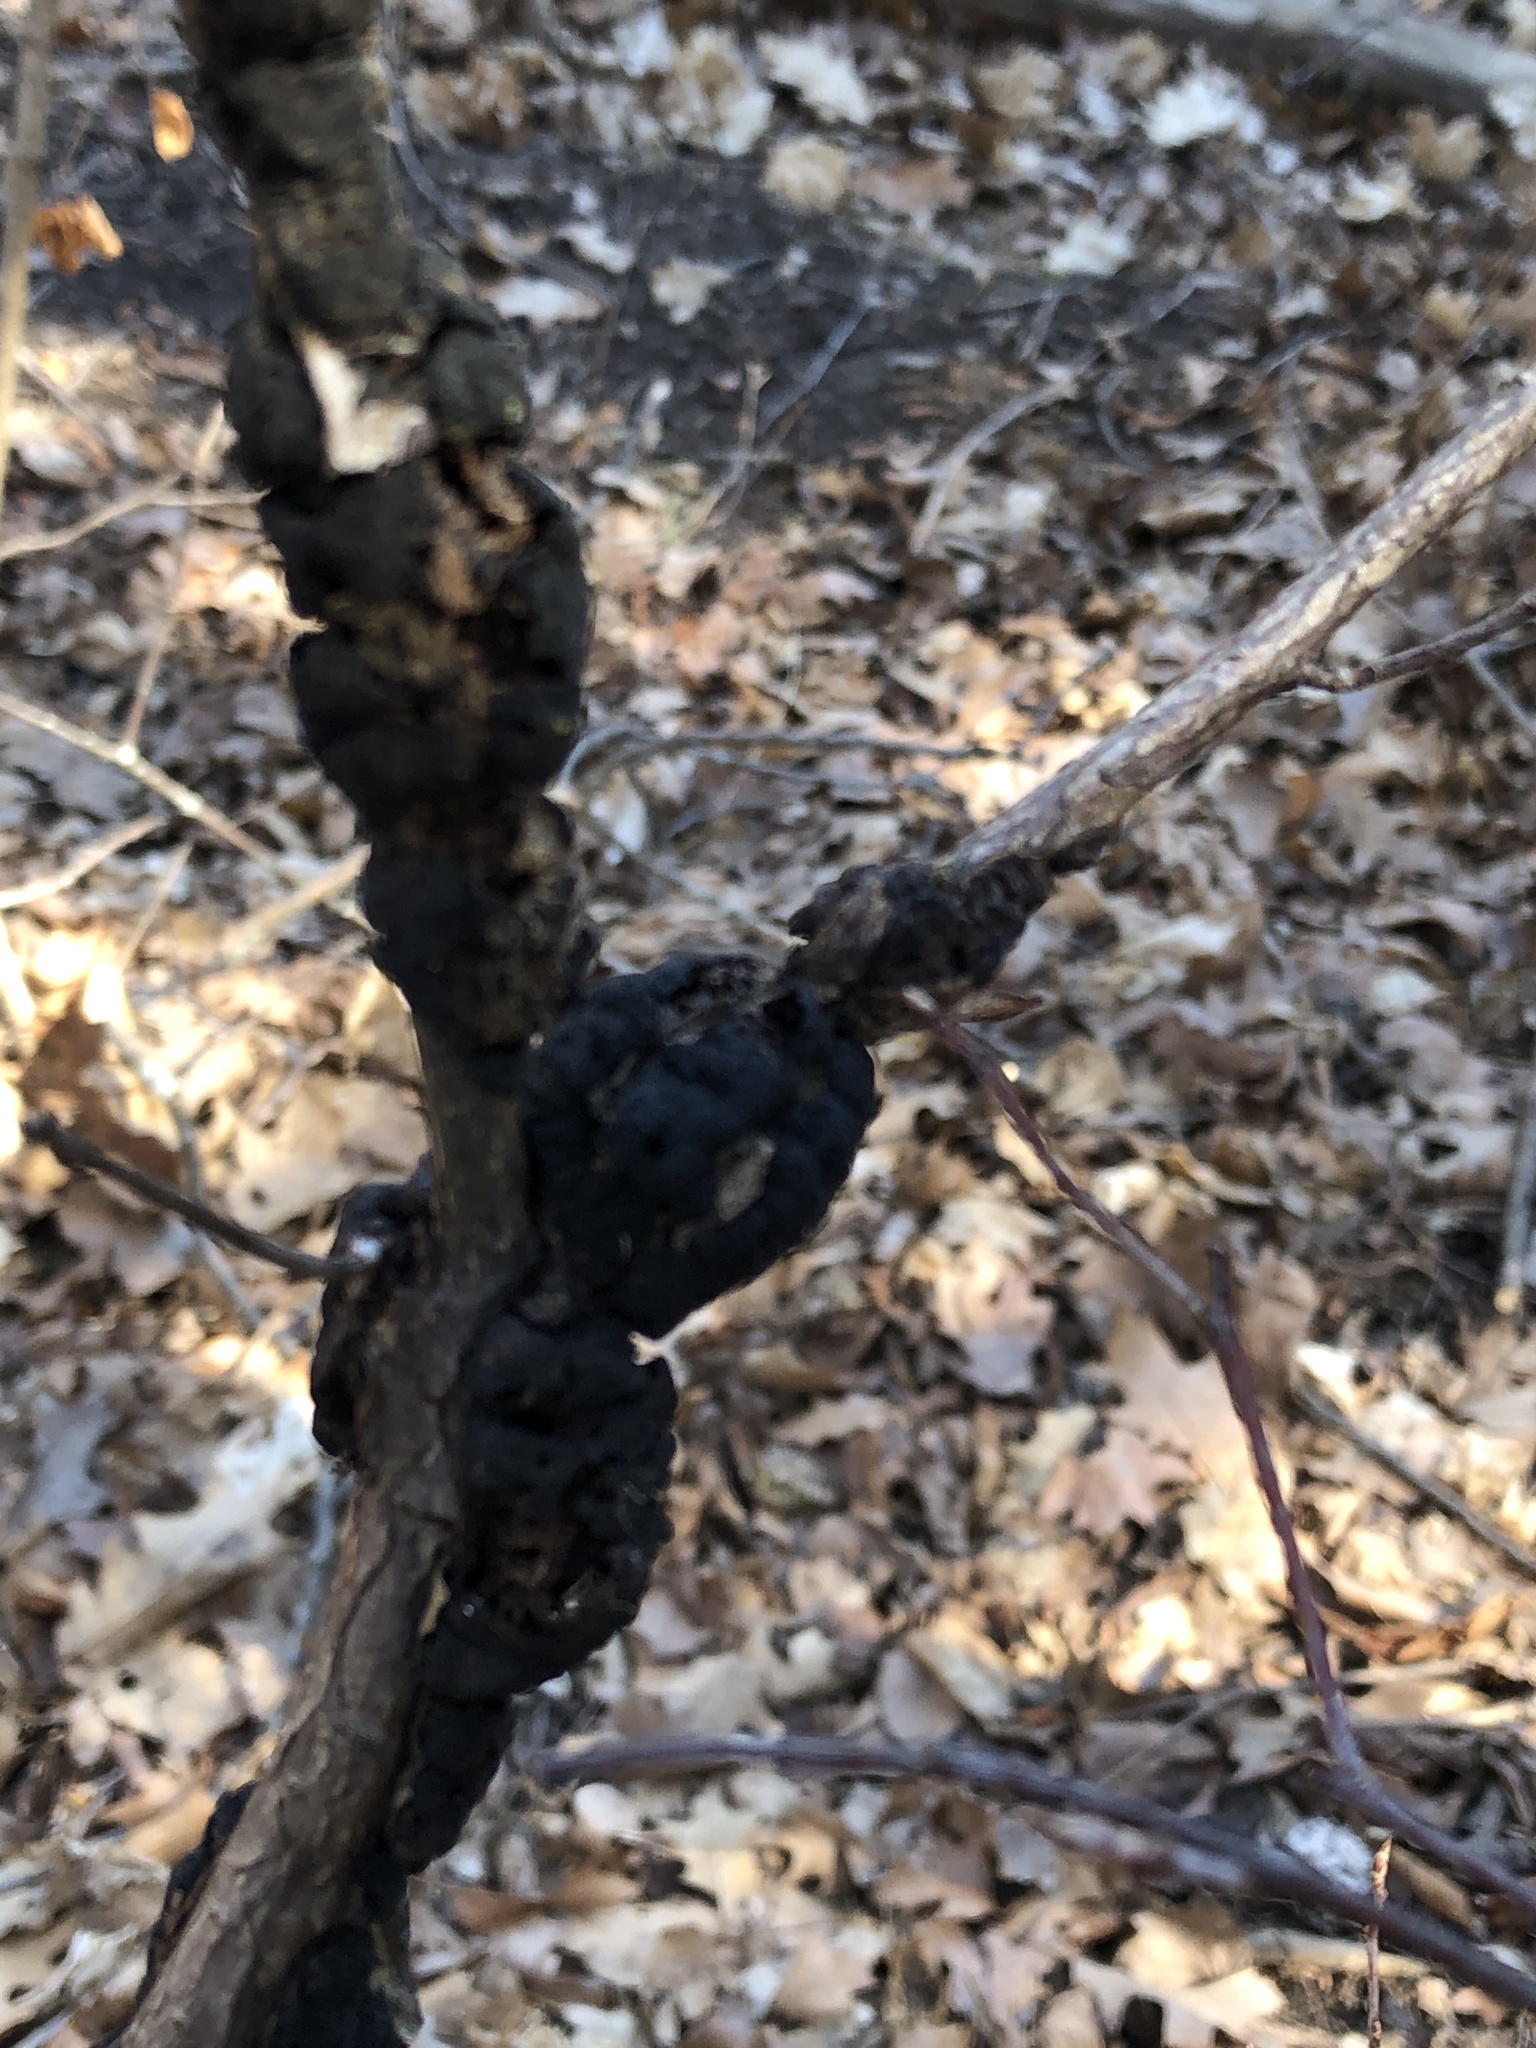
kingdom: Fungi
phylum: Ascomycota
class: Dothideomycetes
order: Venturiales
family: Venturiaceae
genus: Apiosporina
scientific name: Apiosporina morbosa
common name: Black knot
